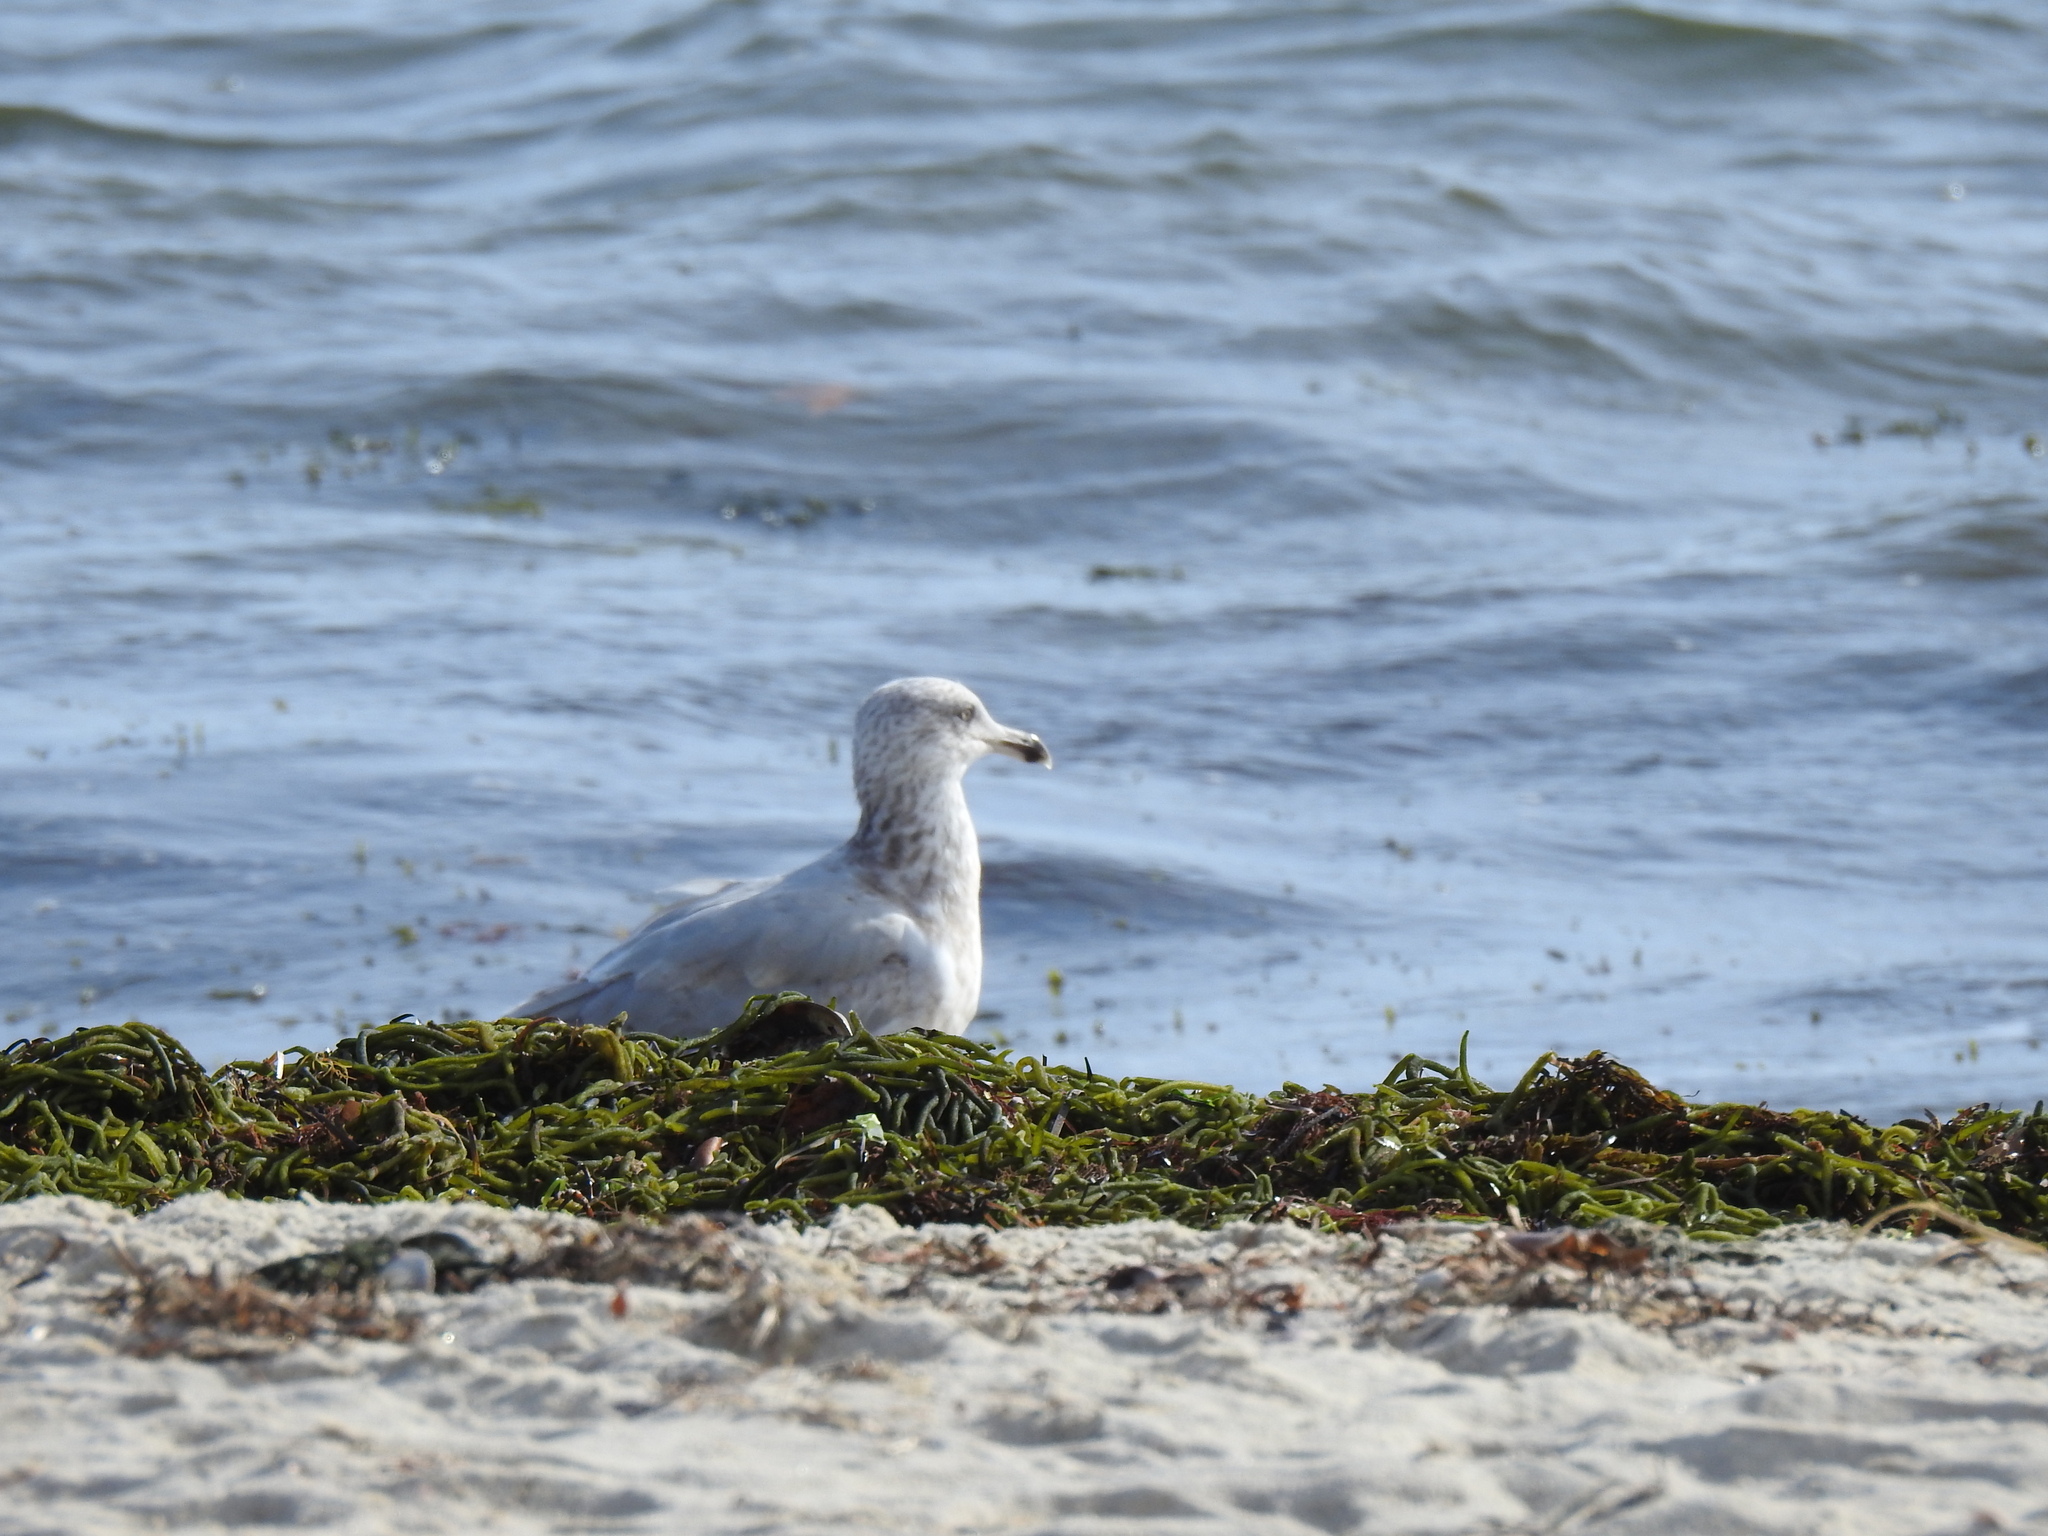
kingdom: Animalia
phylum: Chordata
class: Aves
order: Charadriiformes
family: Laridae
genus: Larus
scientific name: Larus argentatus
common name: Herring gull
